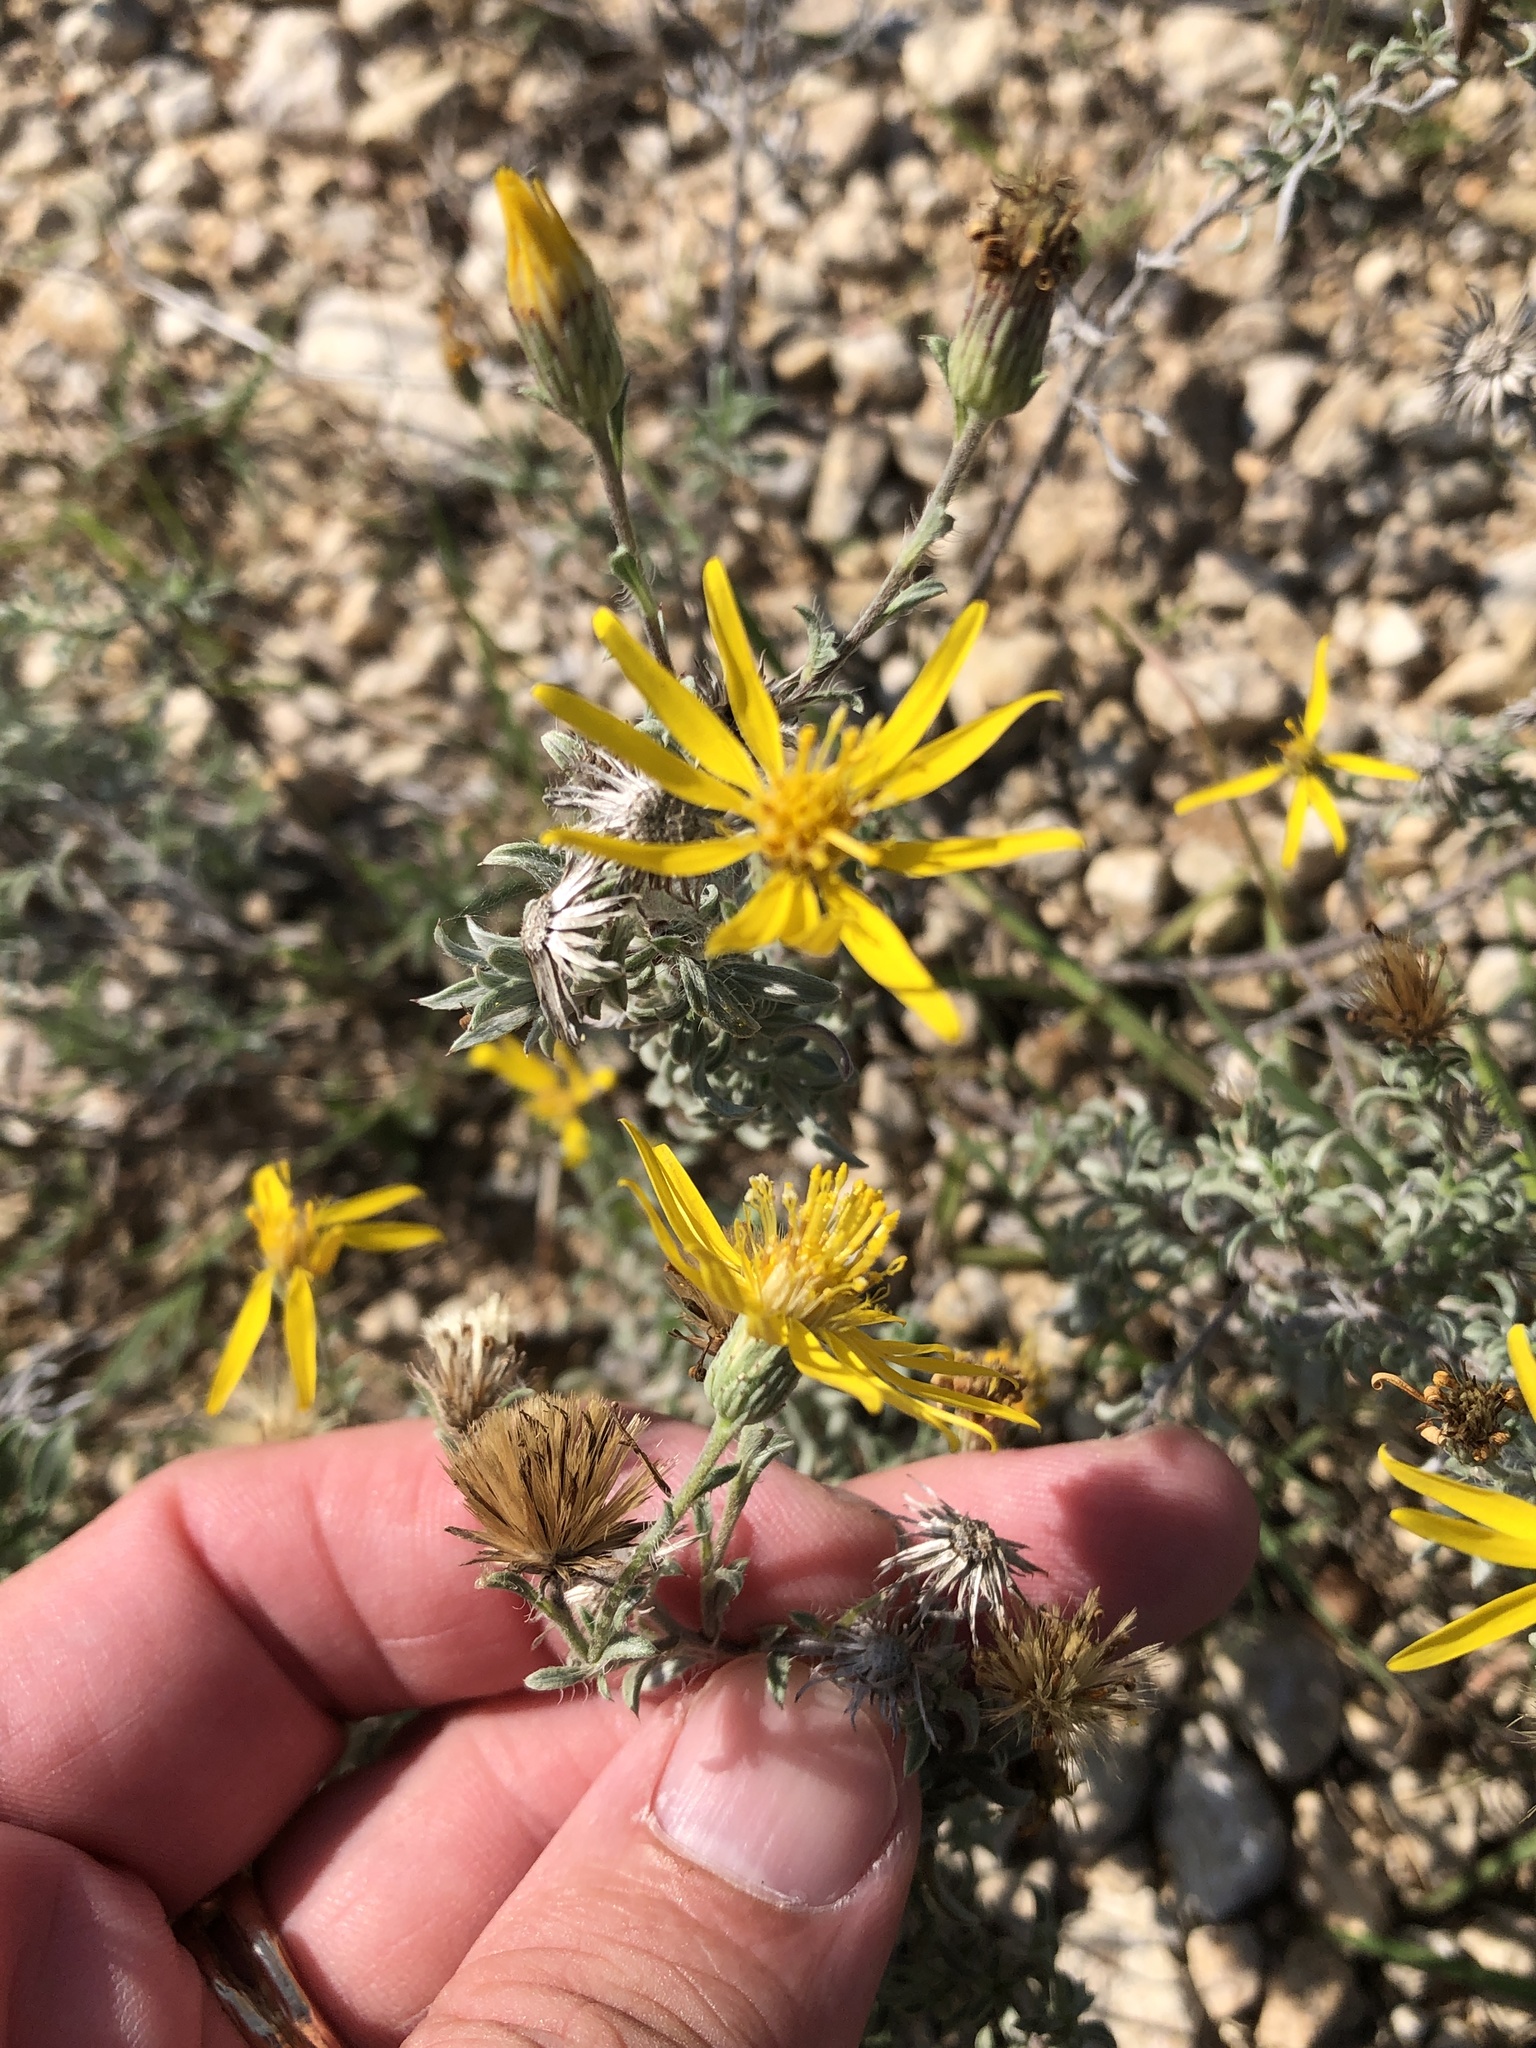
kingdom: Plantae
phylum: Tracheophyta
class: Magnoliopsida
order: Asterales
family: Asteraceae
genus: Heterotheca
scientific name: Heterotheca canescens
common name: Hoary golden-aster
